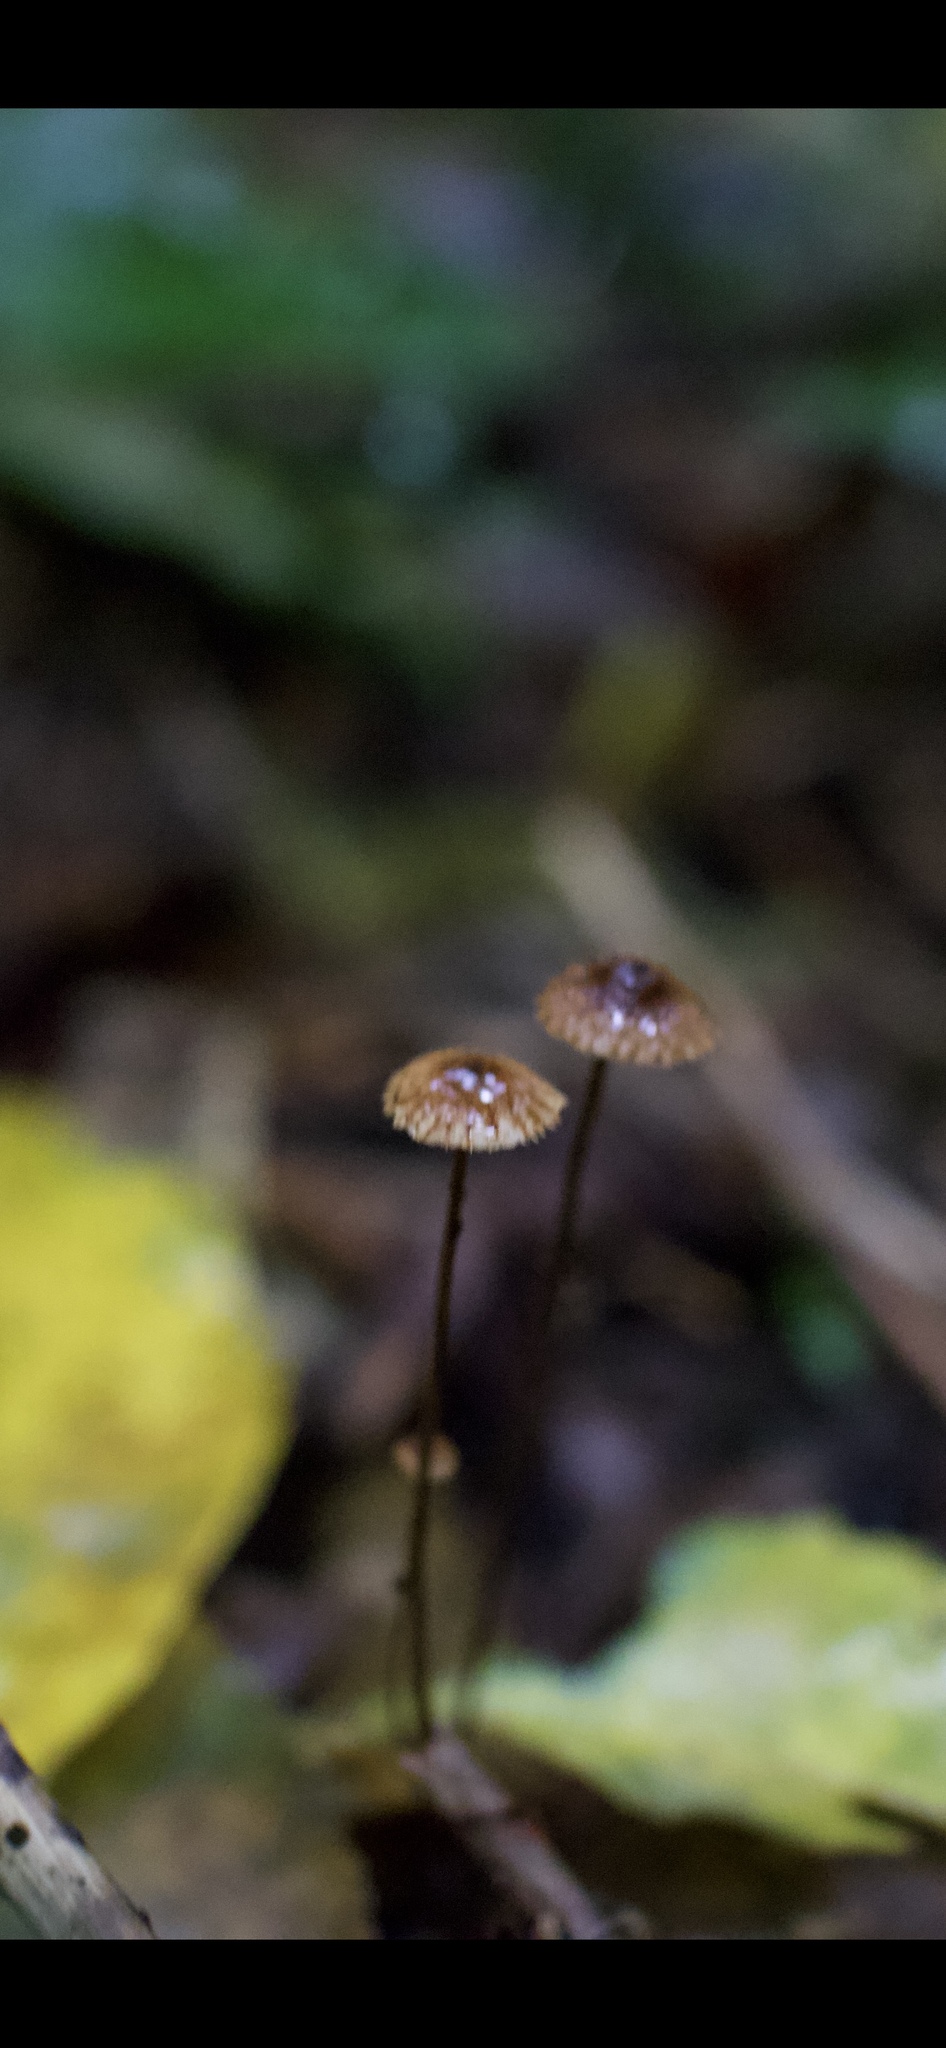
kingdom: Fungi
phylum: Basidiomycota
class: Agaricomycetes
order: Agaricales
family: Marasmiaceae
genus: Crinipellis
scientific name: Crinipellis procera
